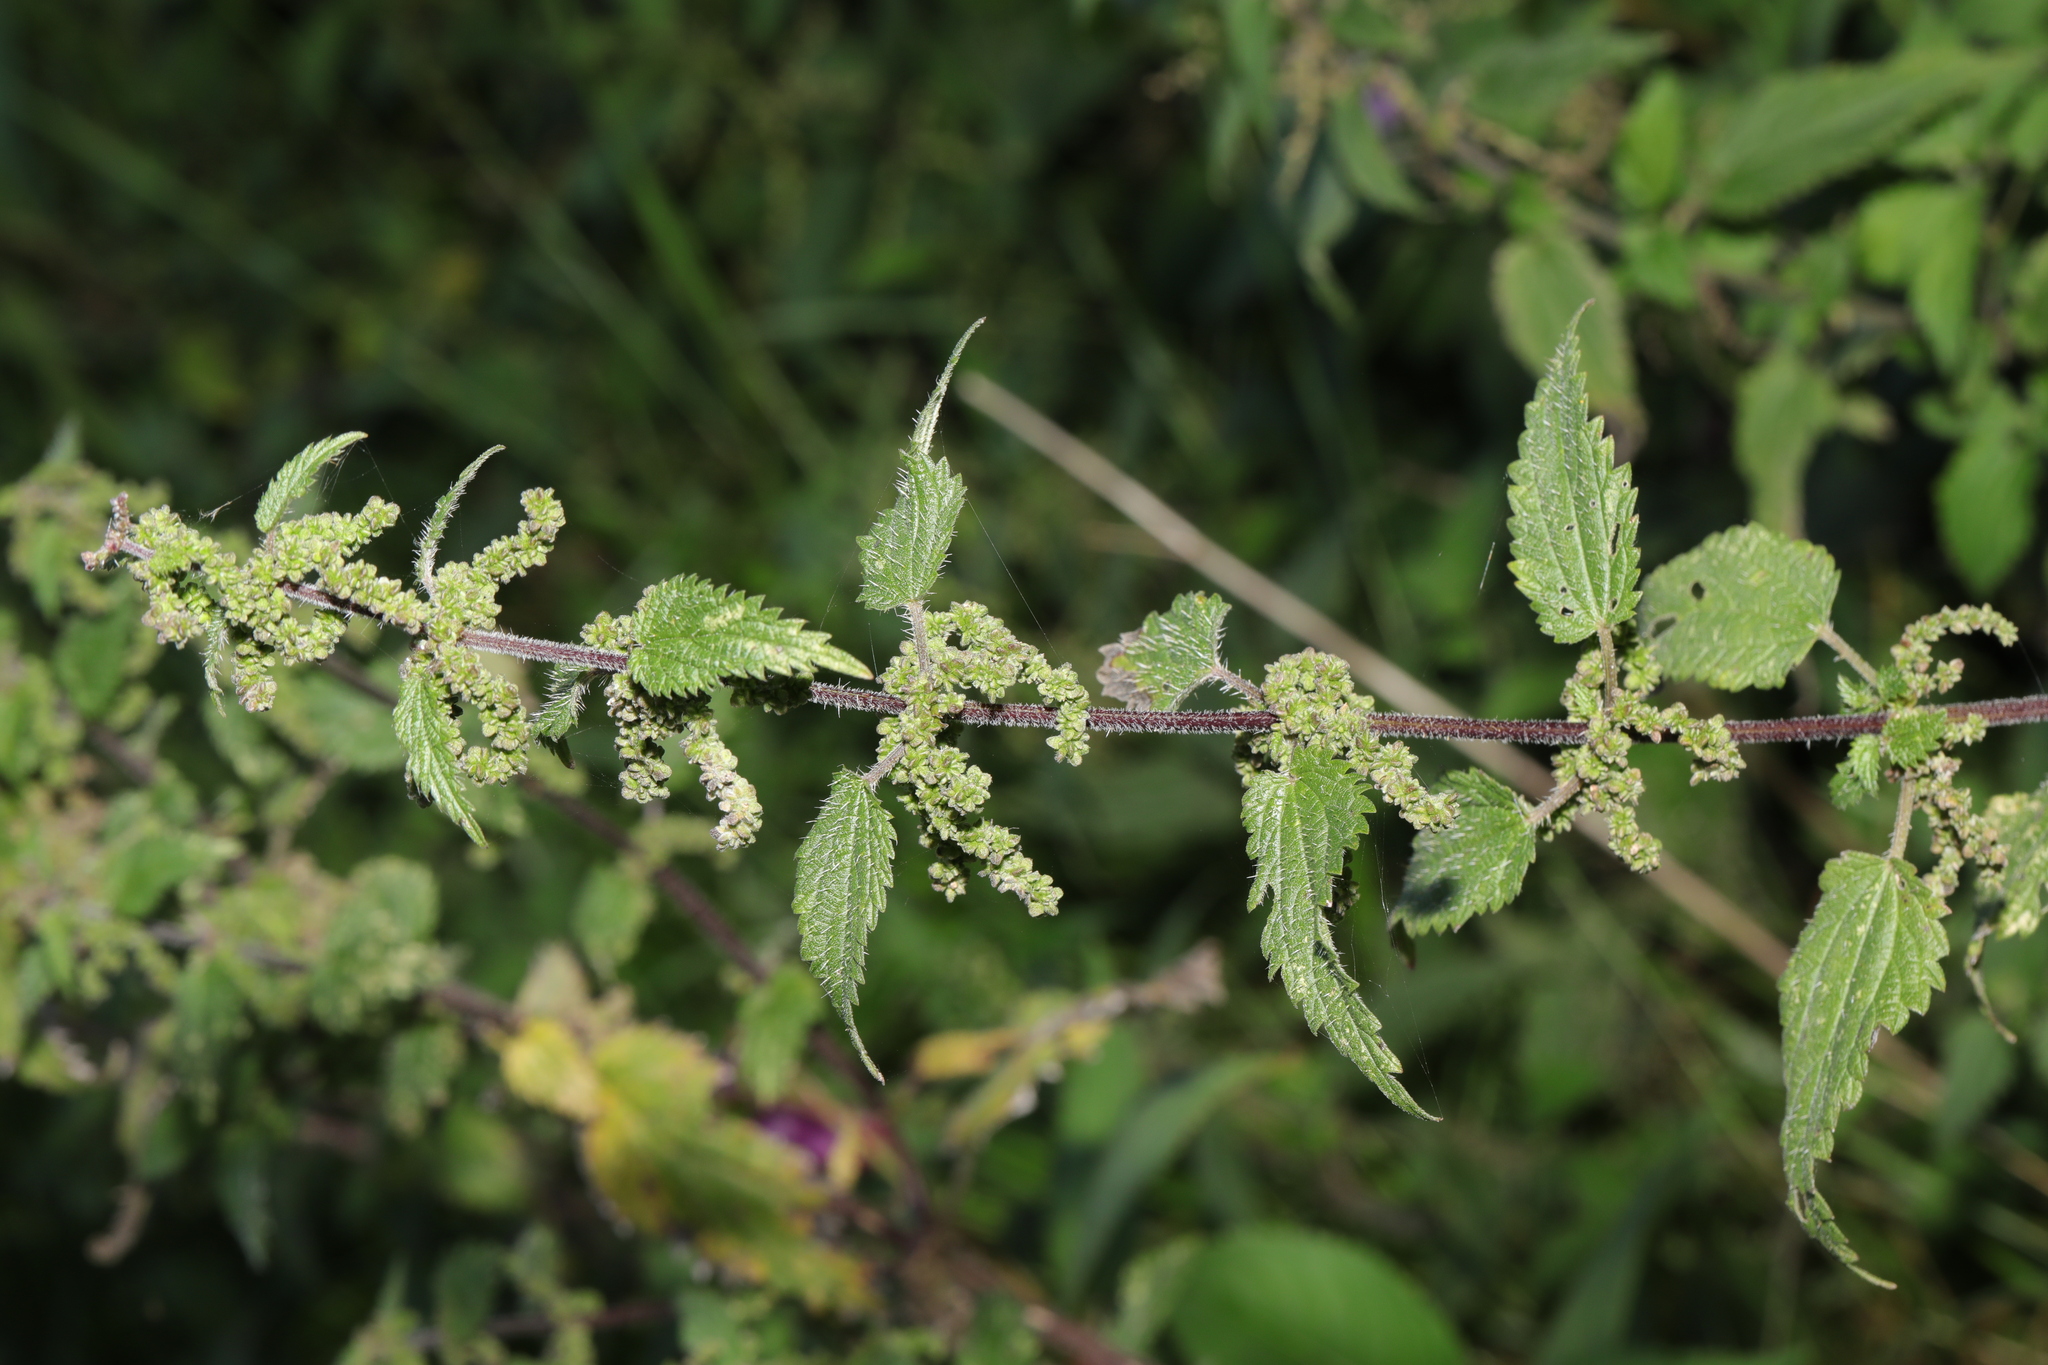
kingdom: Plantae
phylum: Tracheophyta
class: Magnoliopsida
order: Rosales
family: Urticaceae
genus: Urtica
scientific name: Urtica dioica
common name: Common nettle
